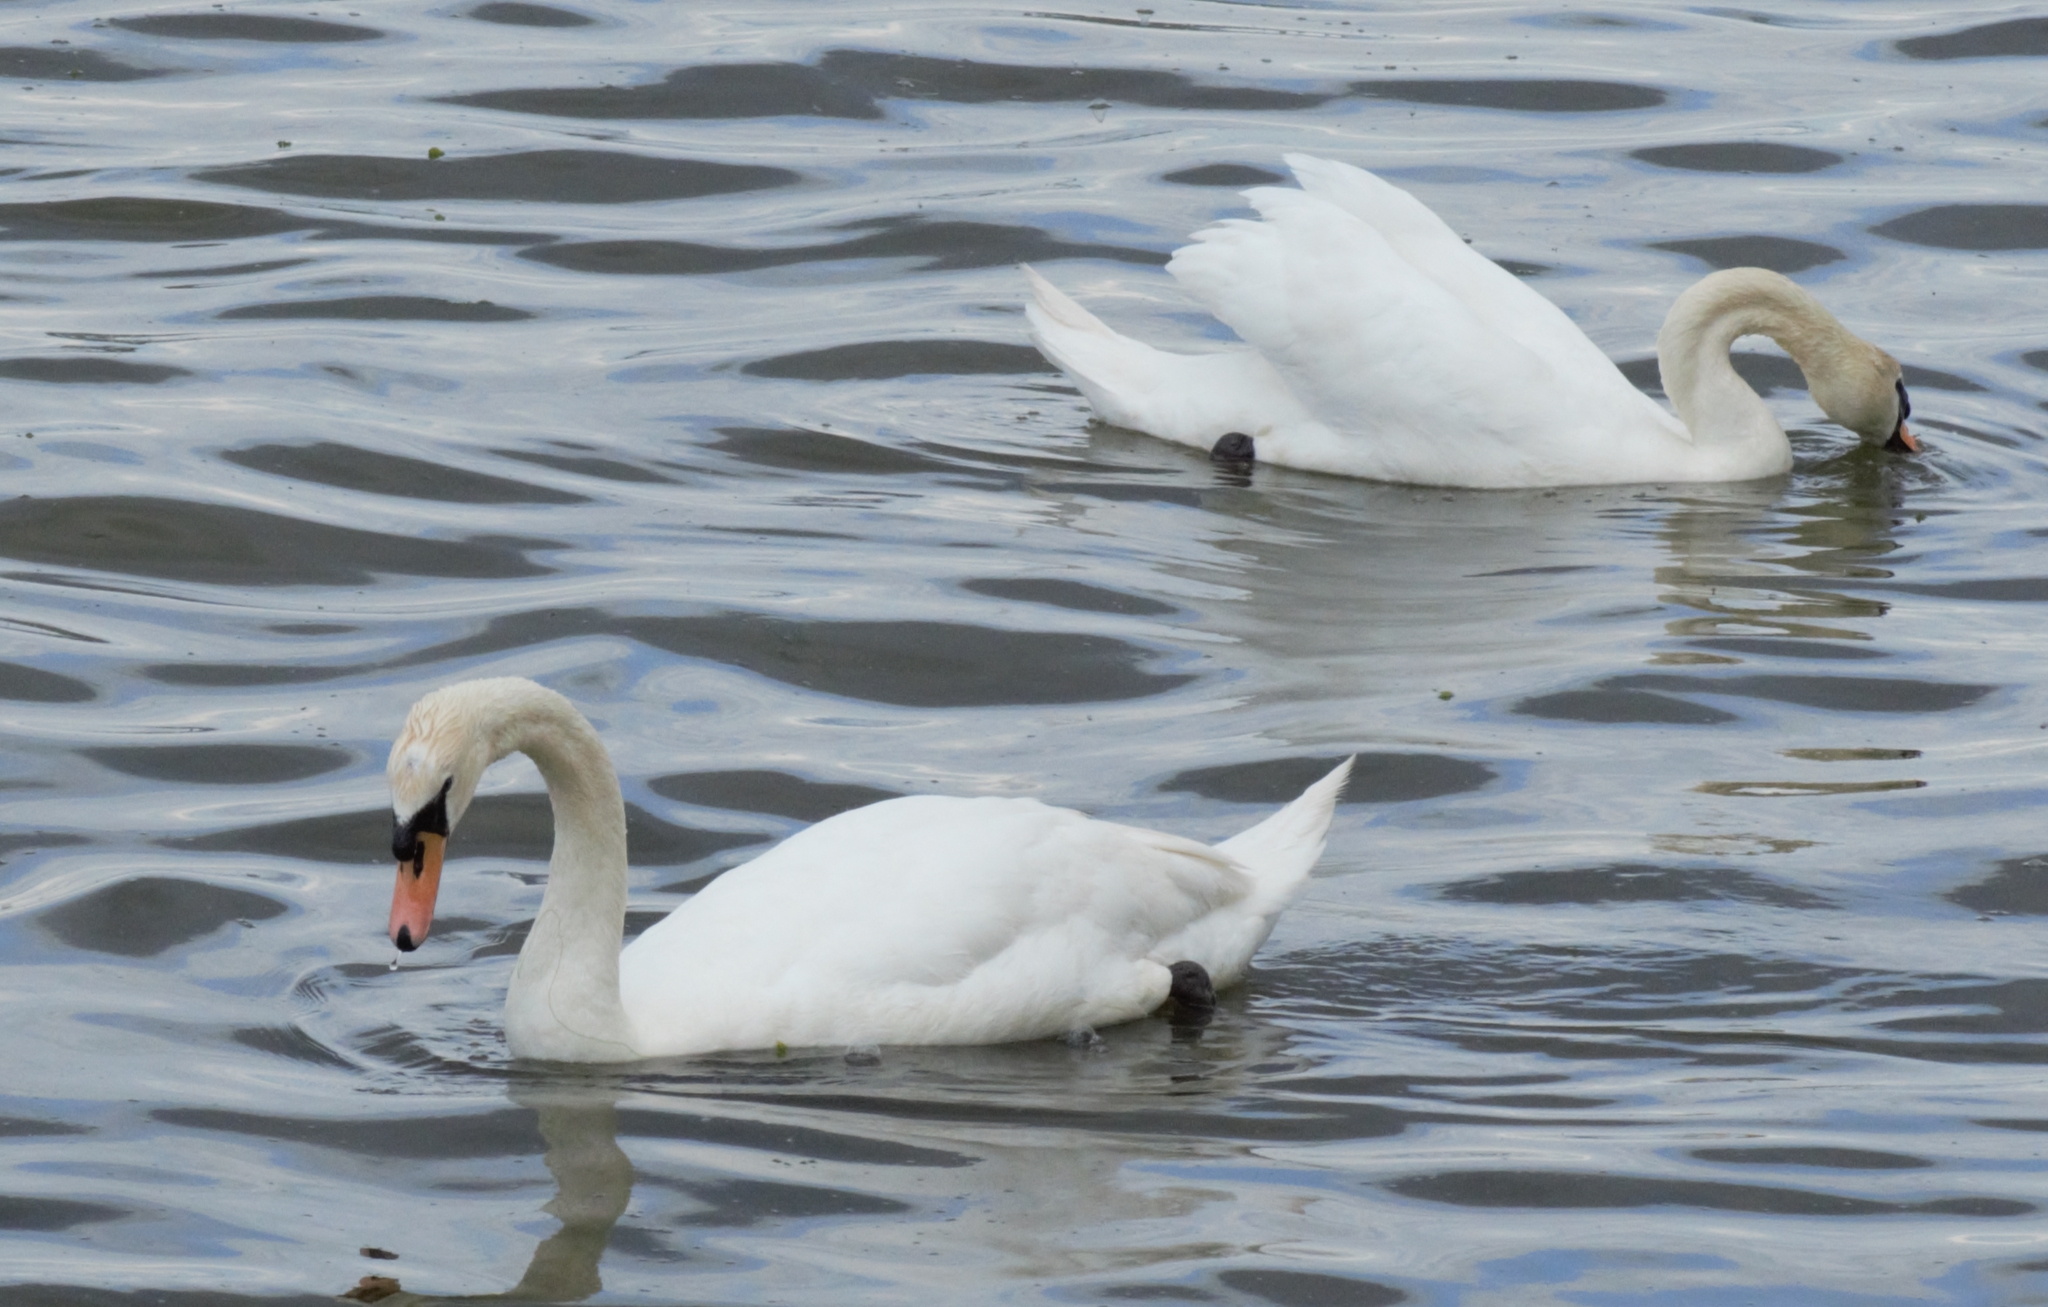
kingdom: Animalia
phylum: Chordata
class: Aves
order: Anseriformes
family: Anatidae
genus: Cygnus
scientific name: Cygnus olor
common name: Mute swan
